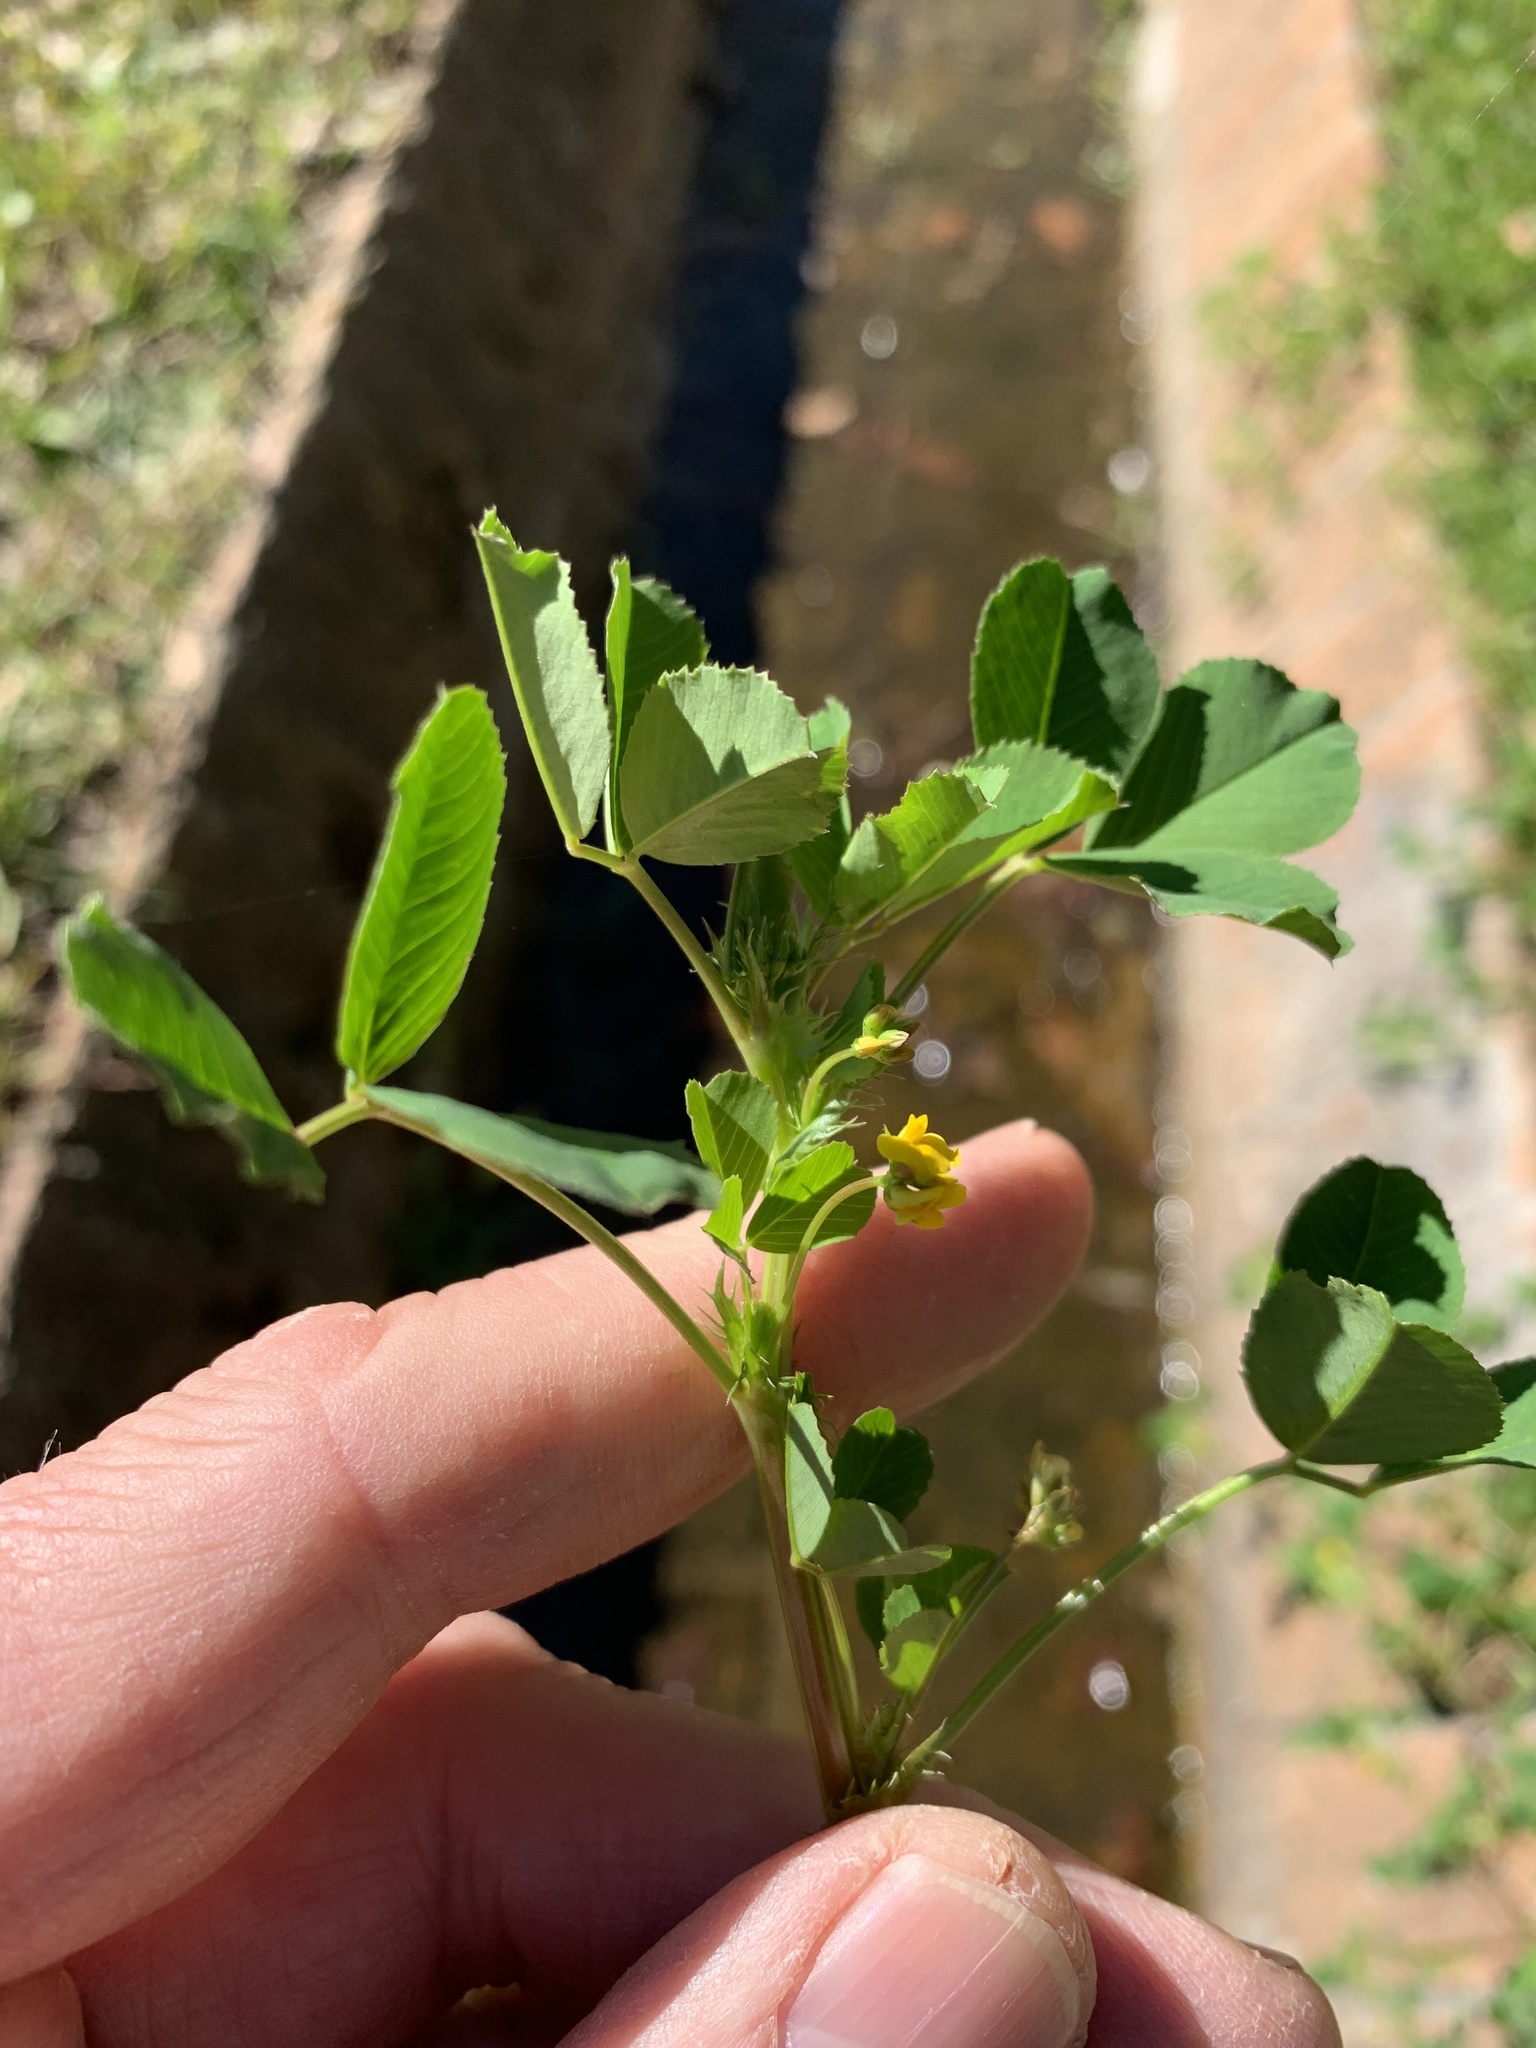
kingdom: Plantae
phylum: Tracheophyta
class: Magnoliopsida
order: Fabales
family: Fabaceae
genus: Medicago
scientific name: Medicago polymorpha
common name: Burclover
